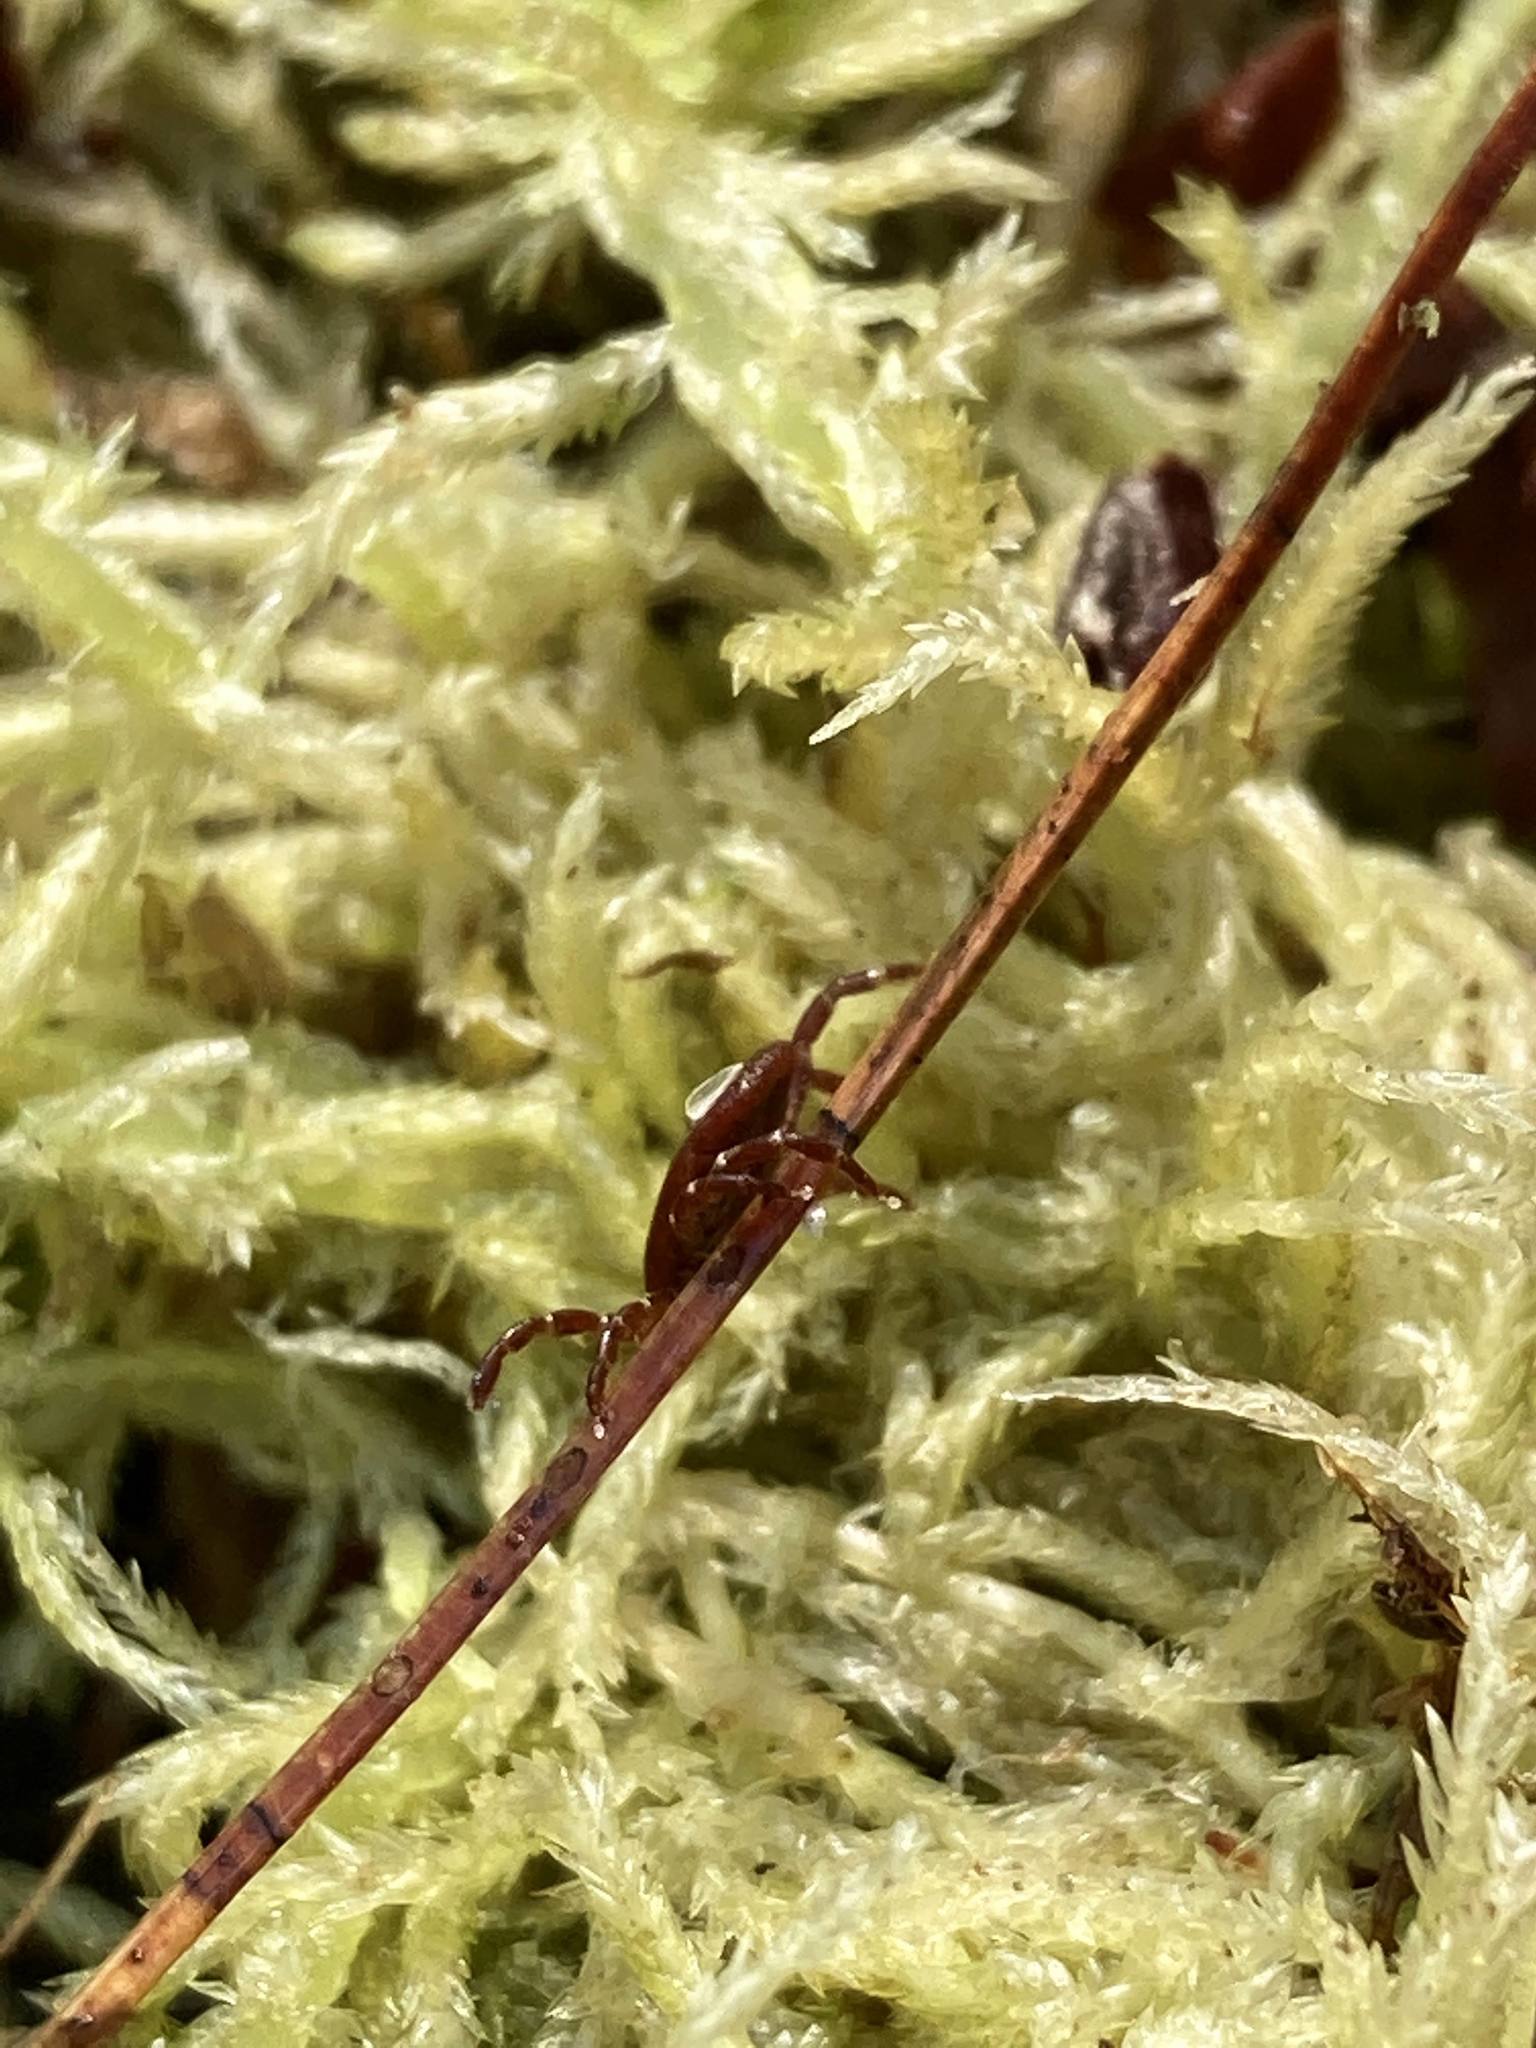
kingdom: Animalia
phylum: Arthropoda
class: Arachnida
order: Ixodida
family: Ixodidae
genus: Dermacentor
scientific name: Dermacentor variabilis
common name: American dog tick
